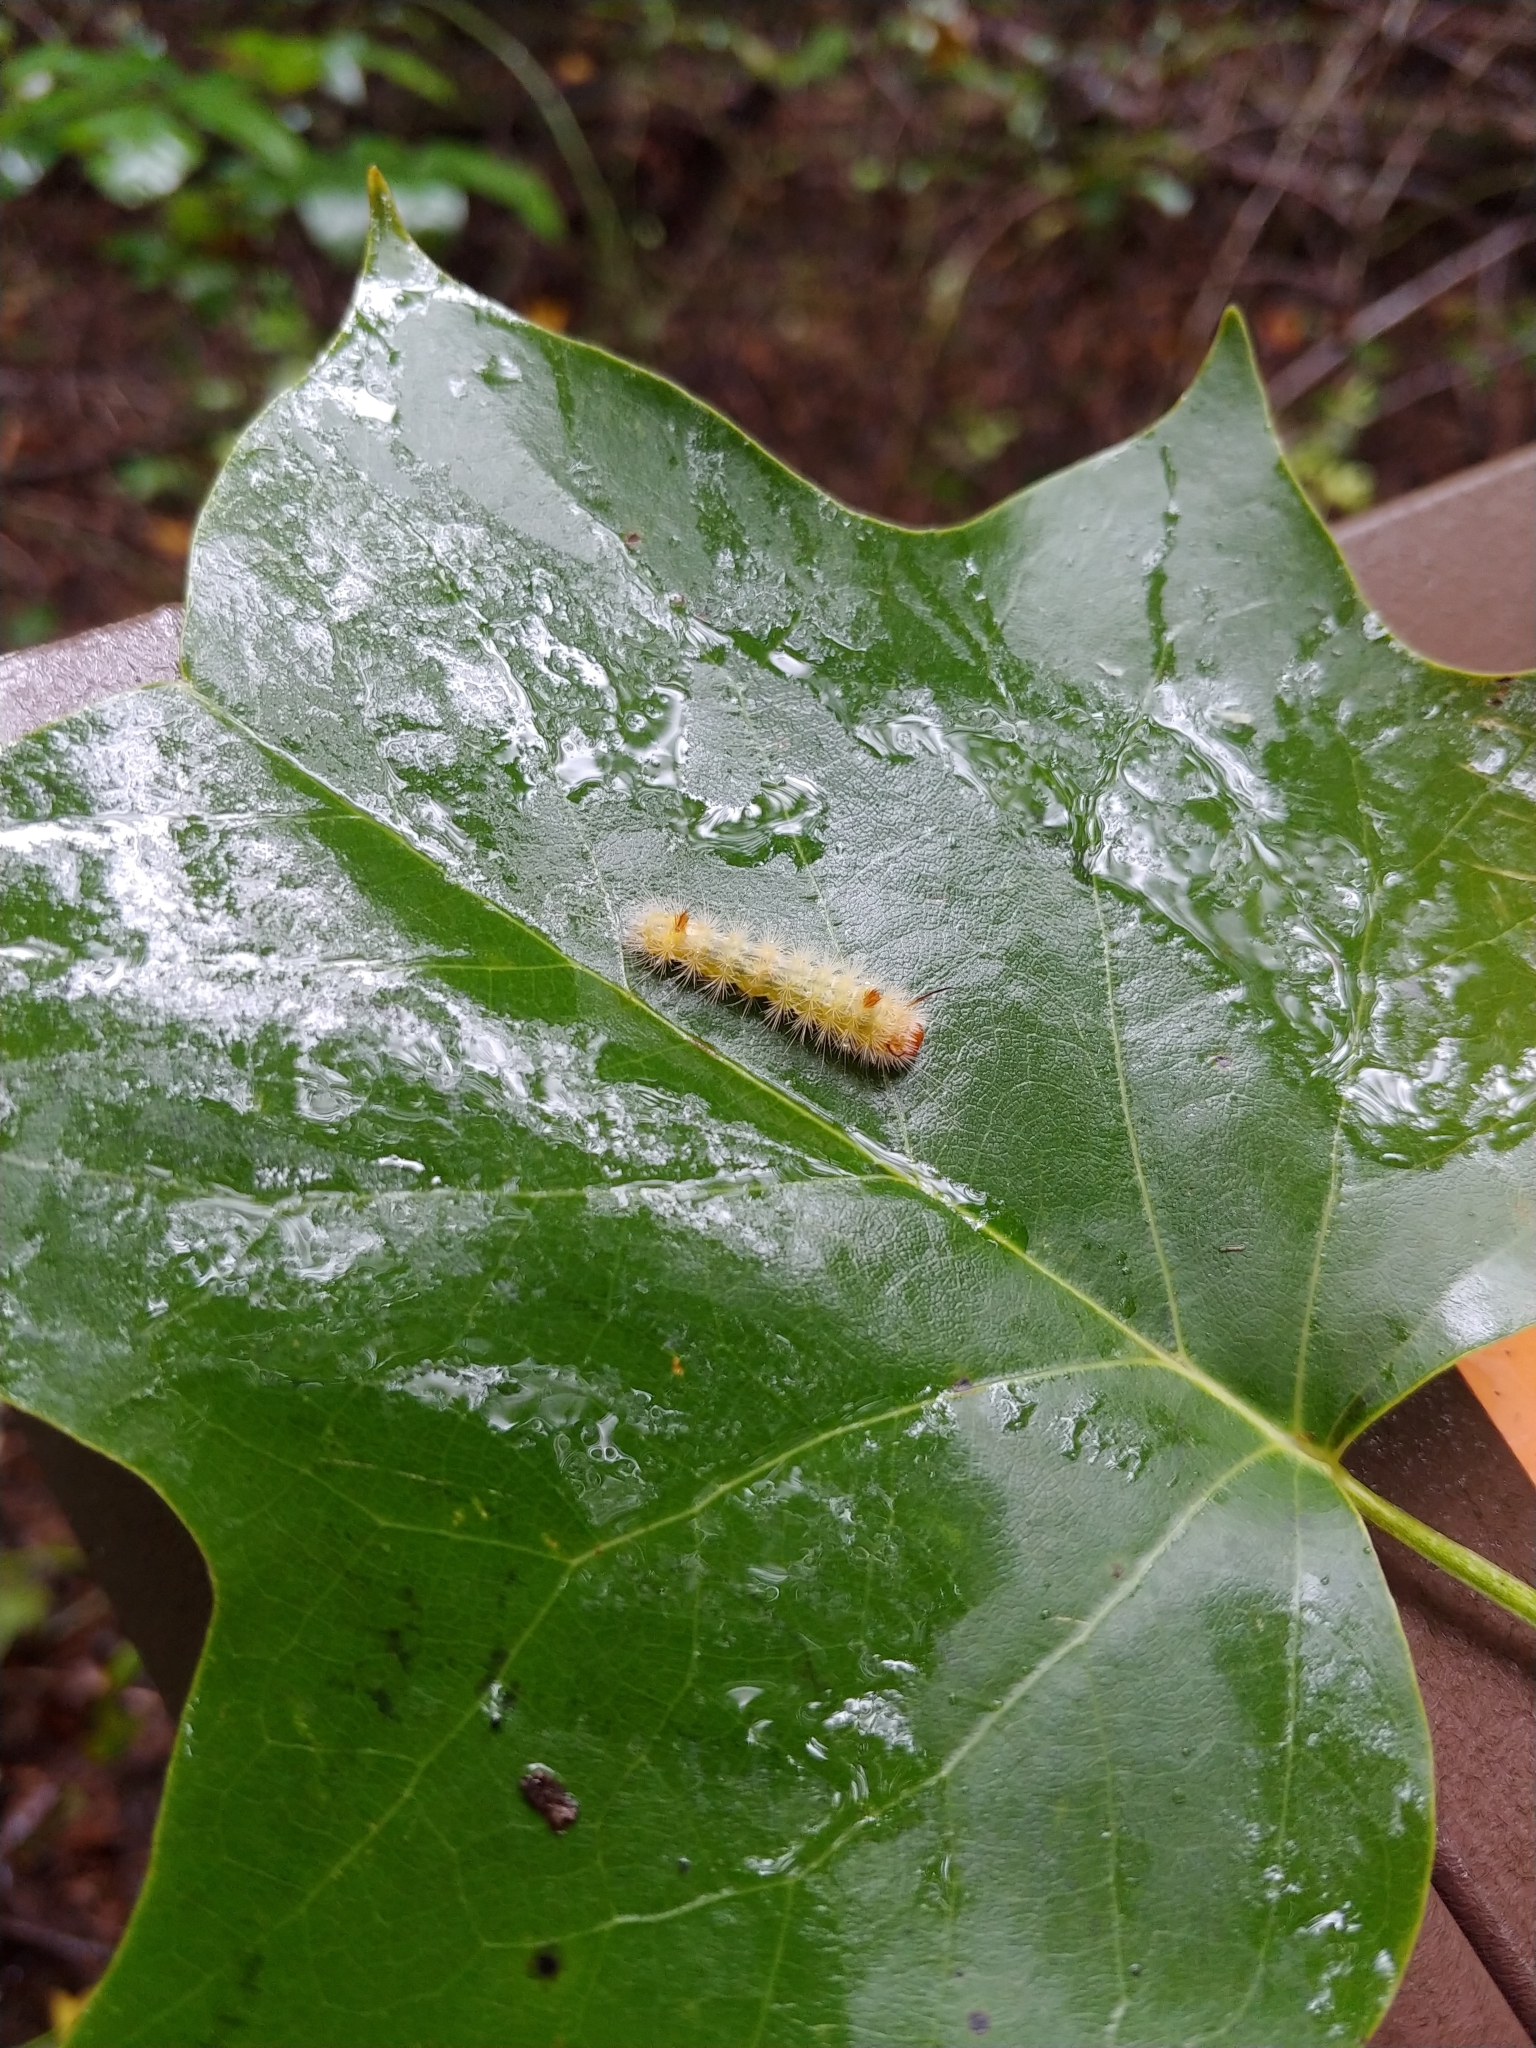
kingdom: Animalia
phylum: Arthropoda
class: Insecta
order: Lepidoptera
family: Noctuidae
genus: Colocasia
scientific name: Colocasia propinquilinea
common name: Close-banded demas
